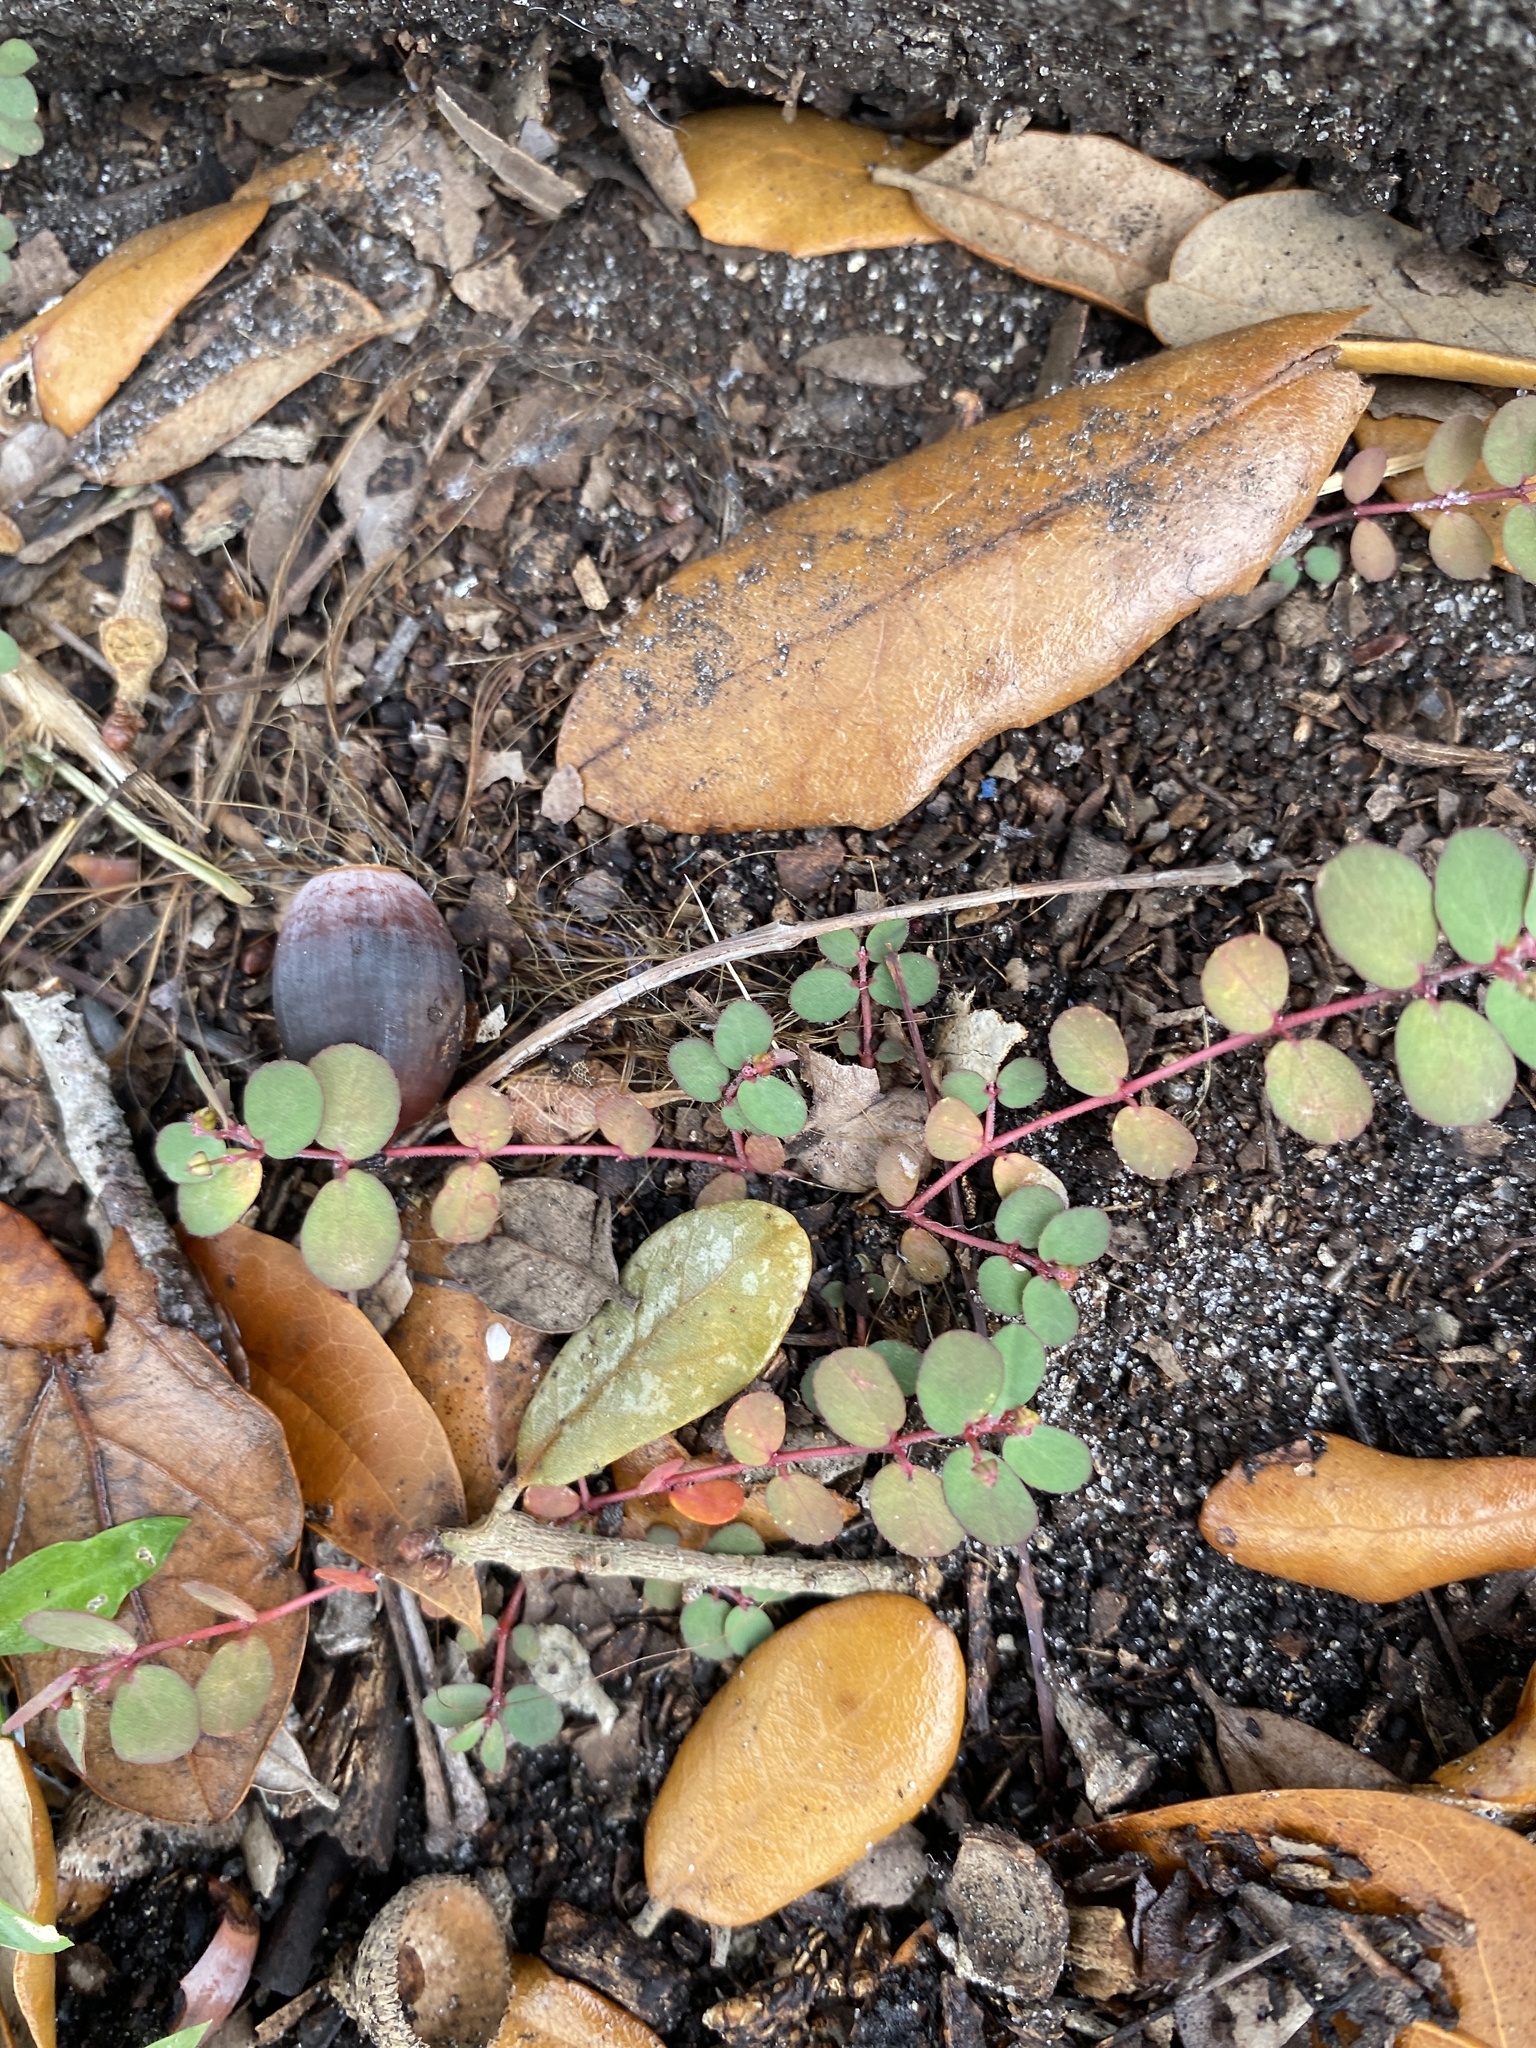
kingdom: Plantae
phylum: Tracheophyta
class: Magnoliopsida
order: Malpighiales
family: Euphorbiaceae
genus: Euphorbia
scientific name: Euphorbia prostrata
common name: Prostrate sandmat
